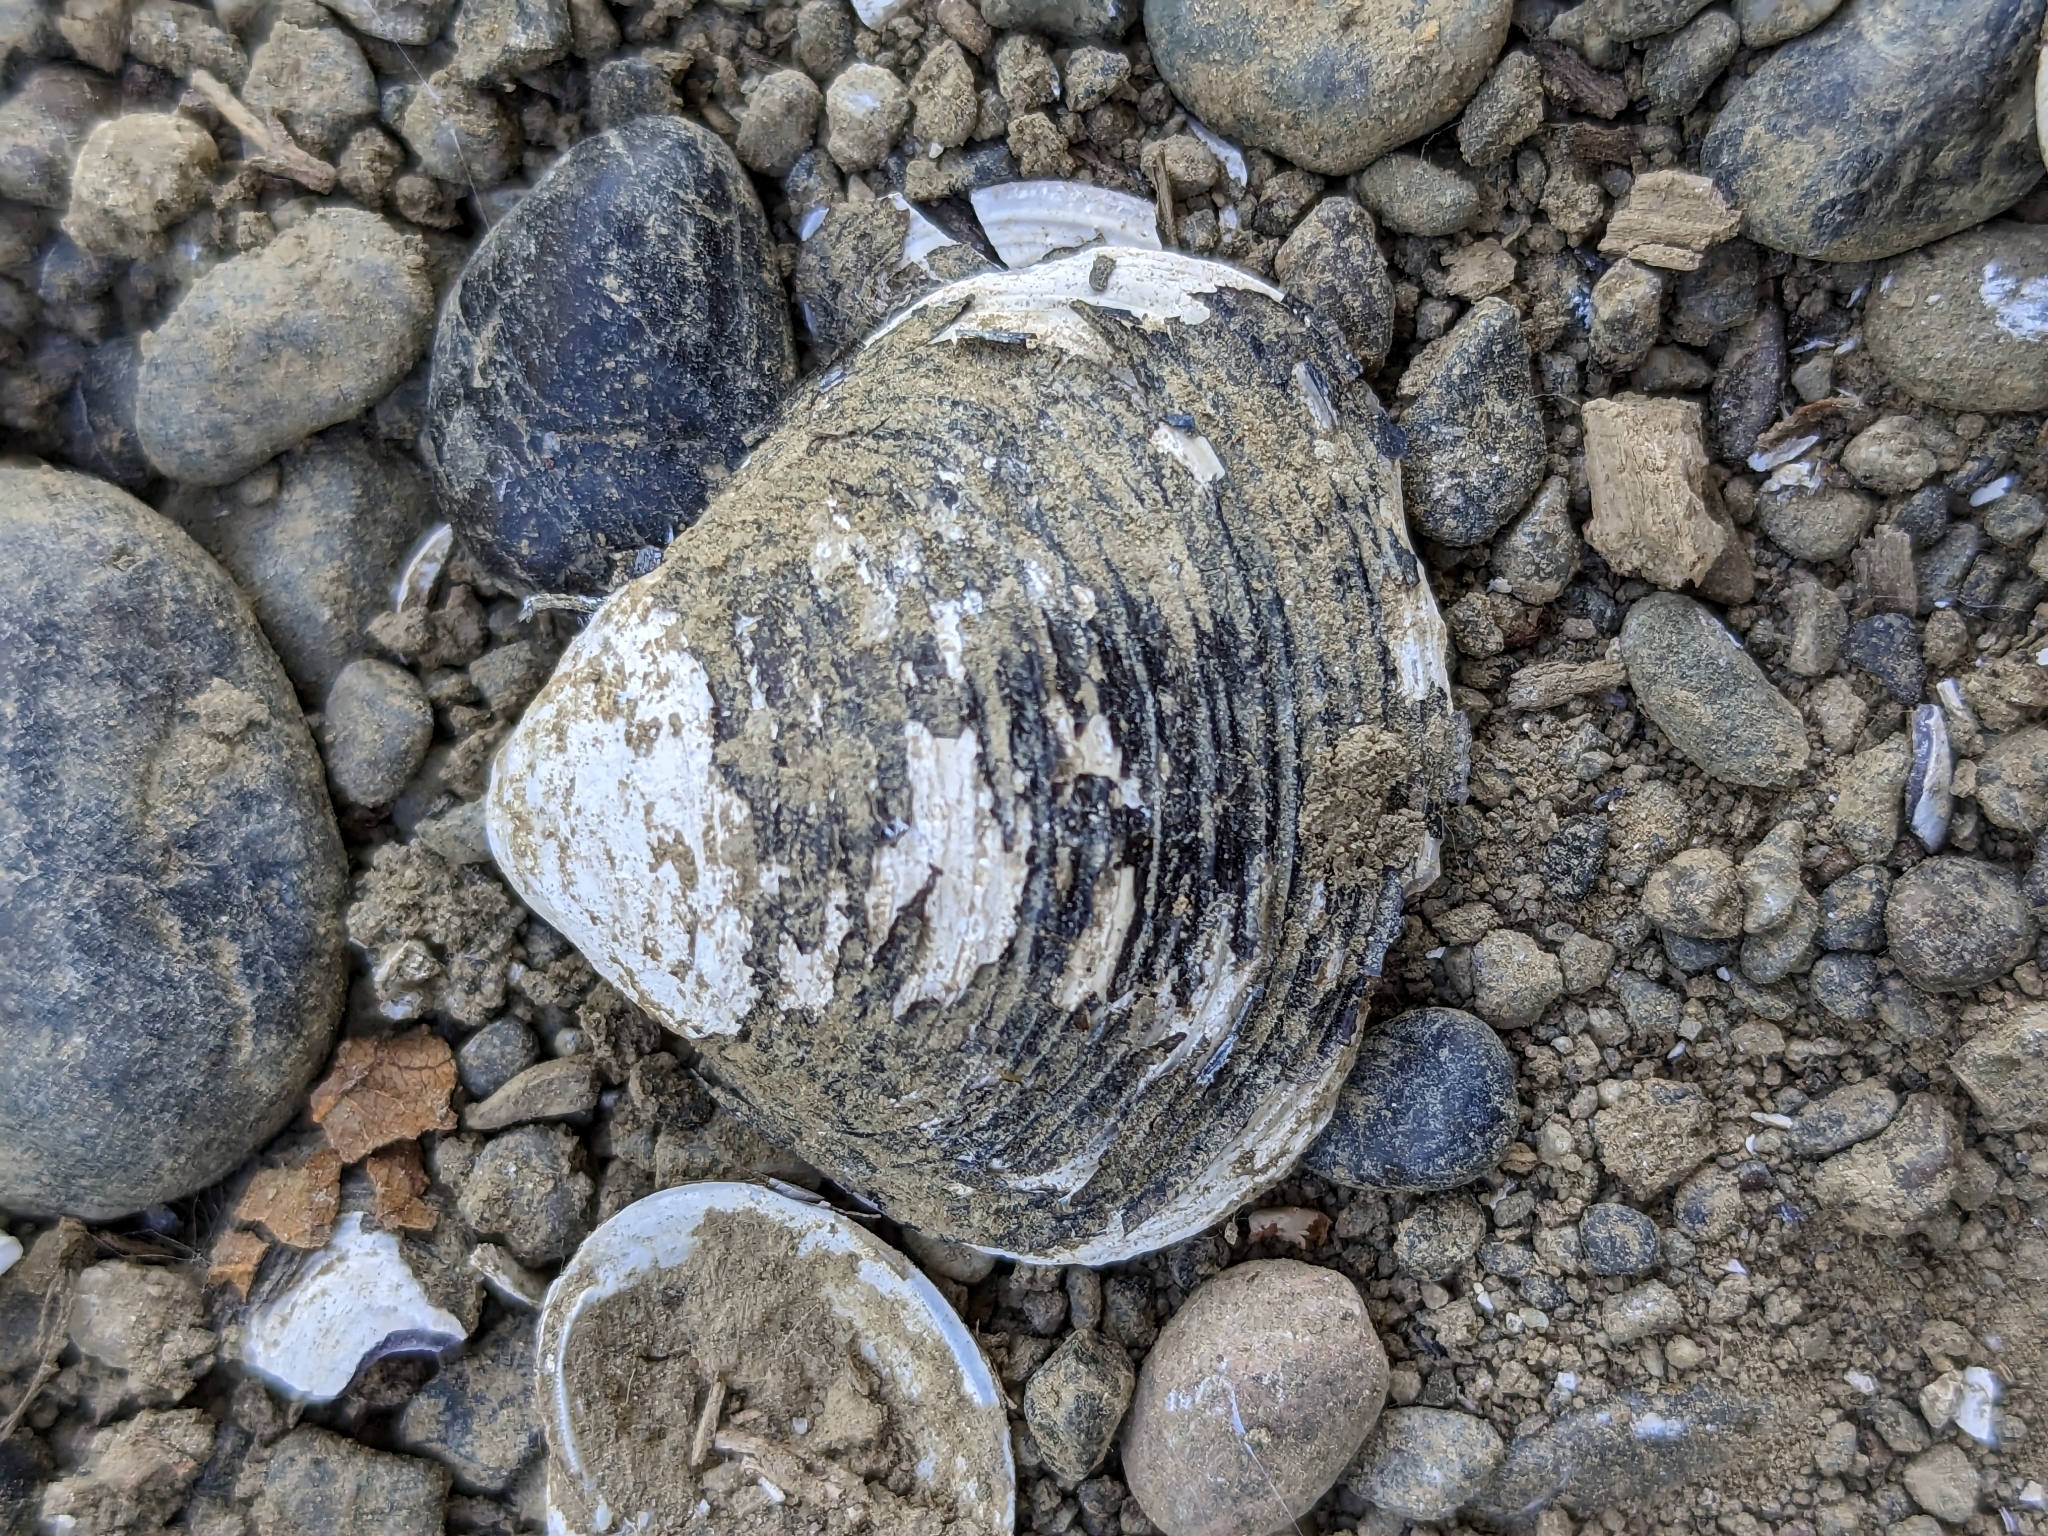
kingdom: Animalia
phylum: Mollusca
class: Bivalvia
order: Venerida
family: Cyrenidae
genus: Corbicula
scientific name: Corbicula fluminea
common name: Asian clam
